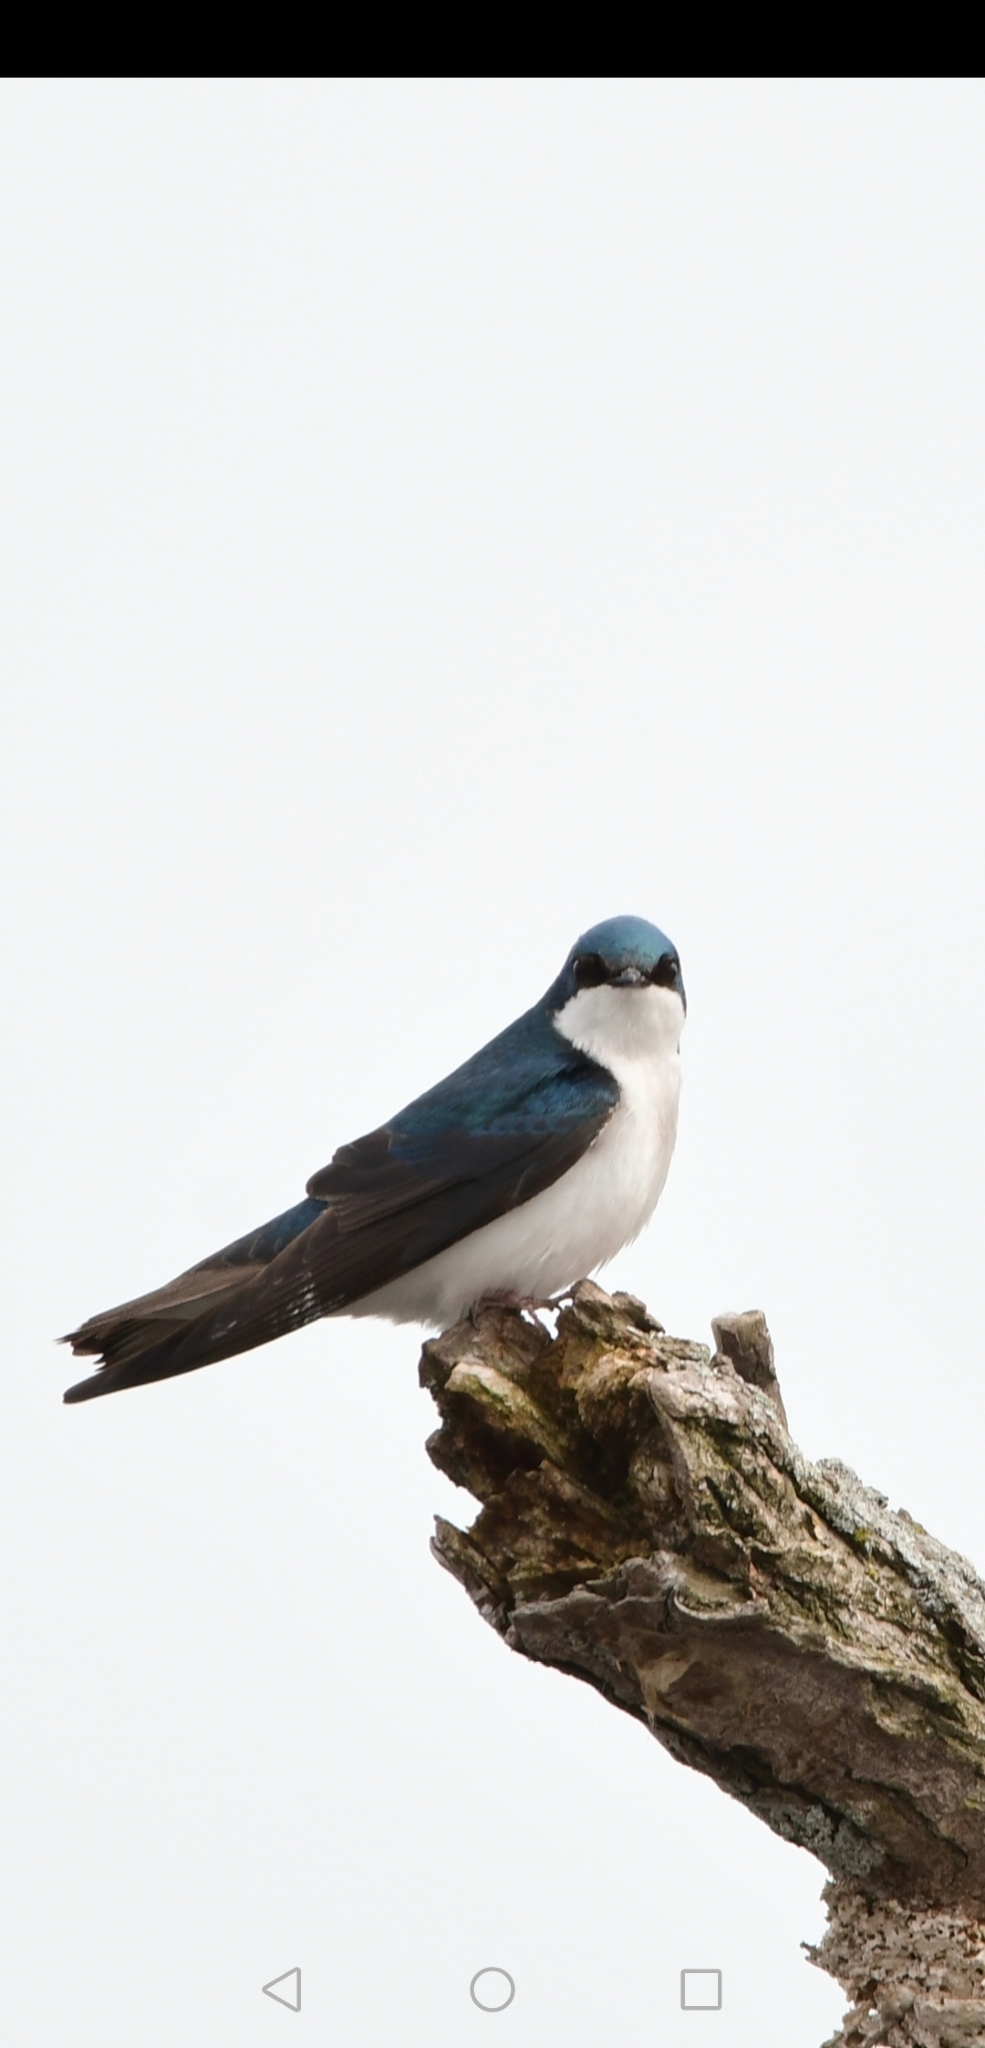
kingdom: Animalia
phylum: Chordata
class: Aves
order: Passeriformes
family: Hirundinidae
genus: Tachycineta
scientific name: Tachycineta bicolor
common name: Tree swallow
